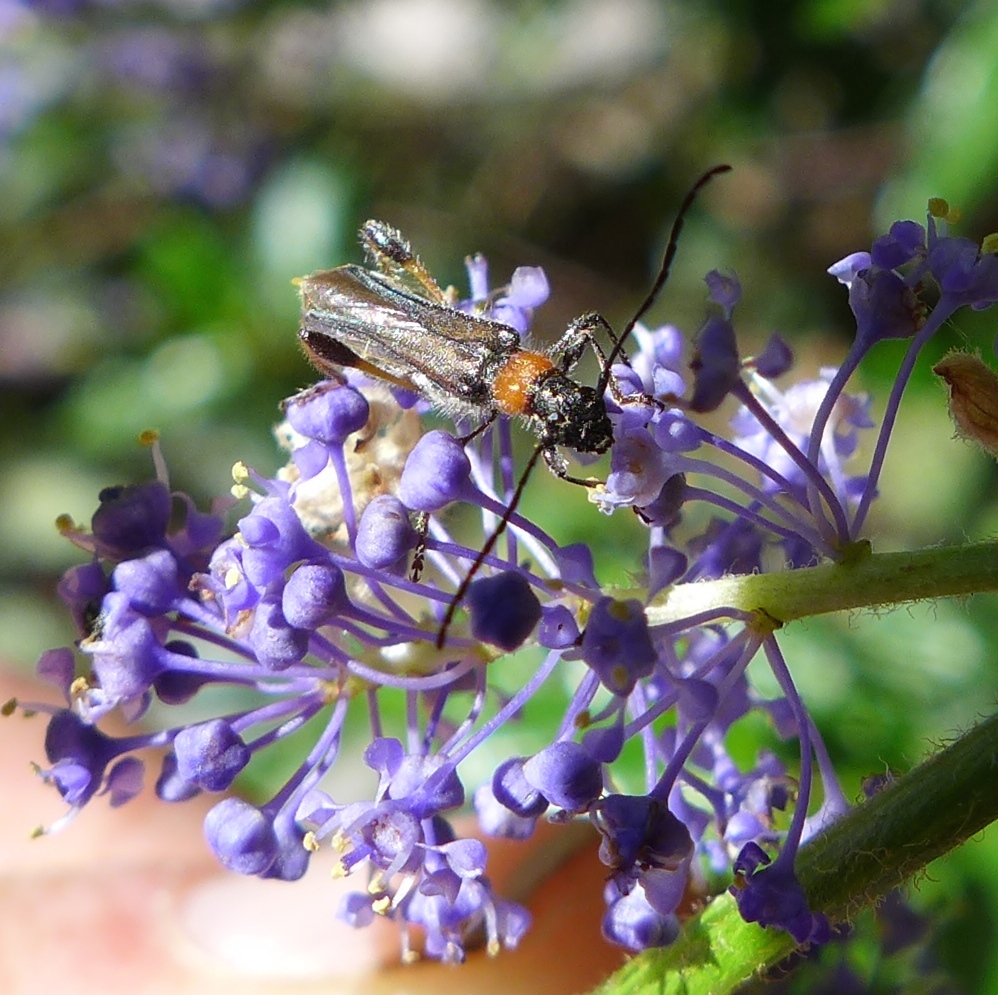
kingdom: Animalia
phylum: Arthropoda
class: Insecta
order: Coleoptera
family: Cerambycidae
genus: Callimoxys
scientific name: Callimoxys fuscipennis
